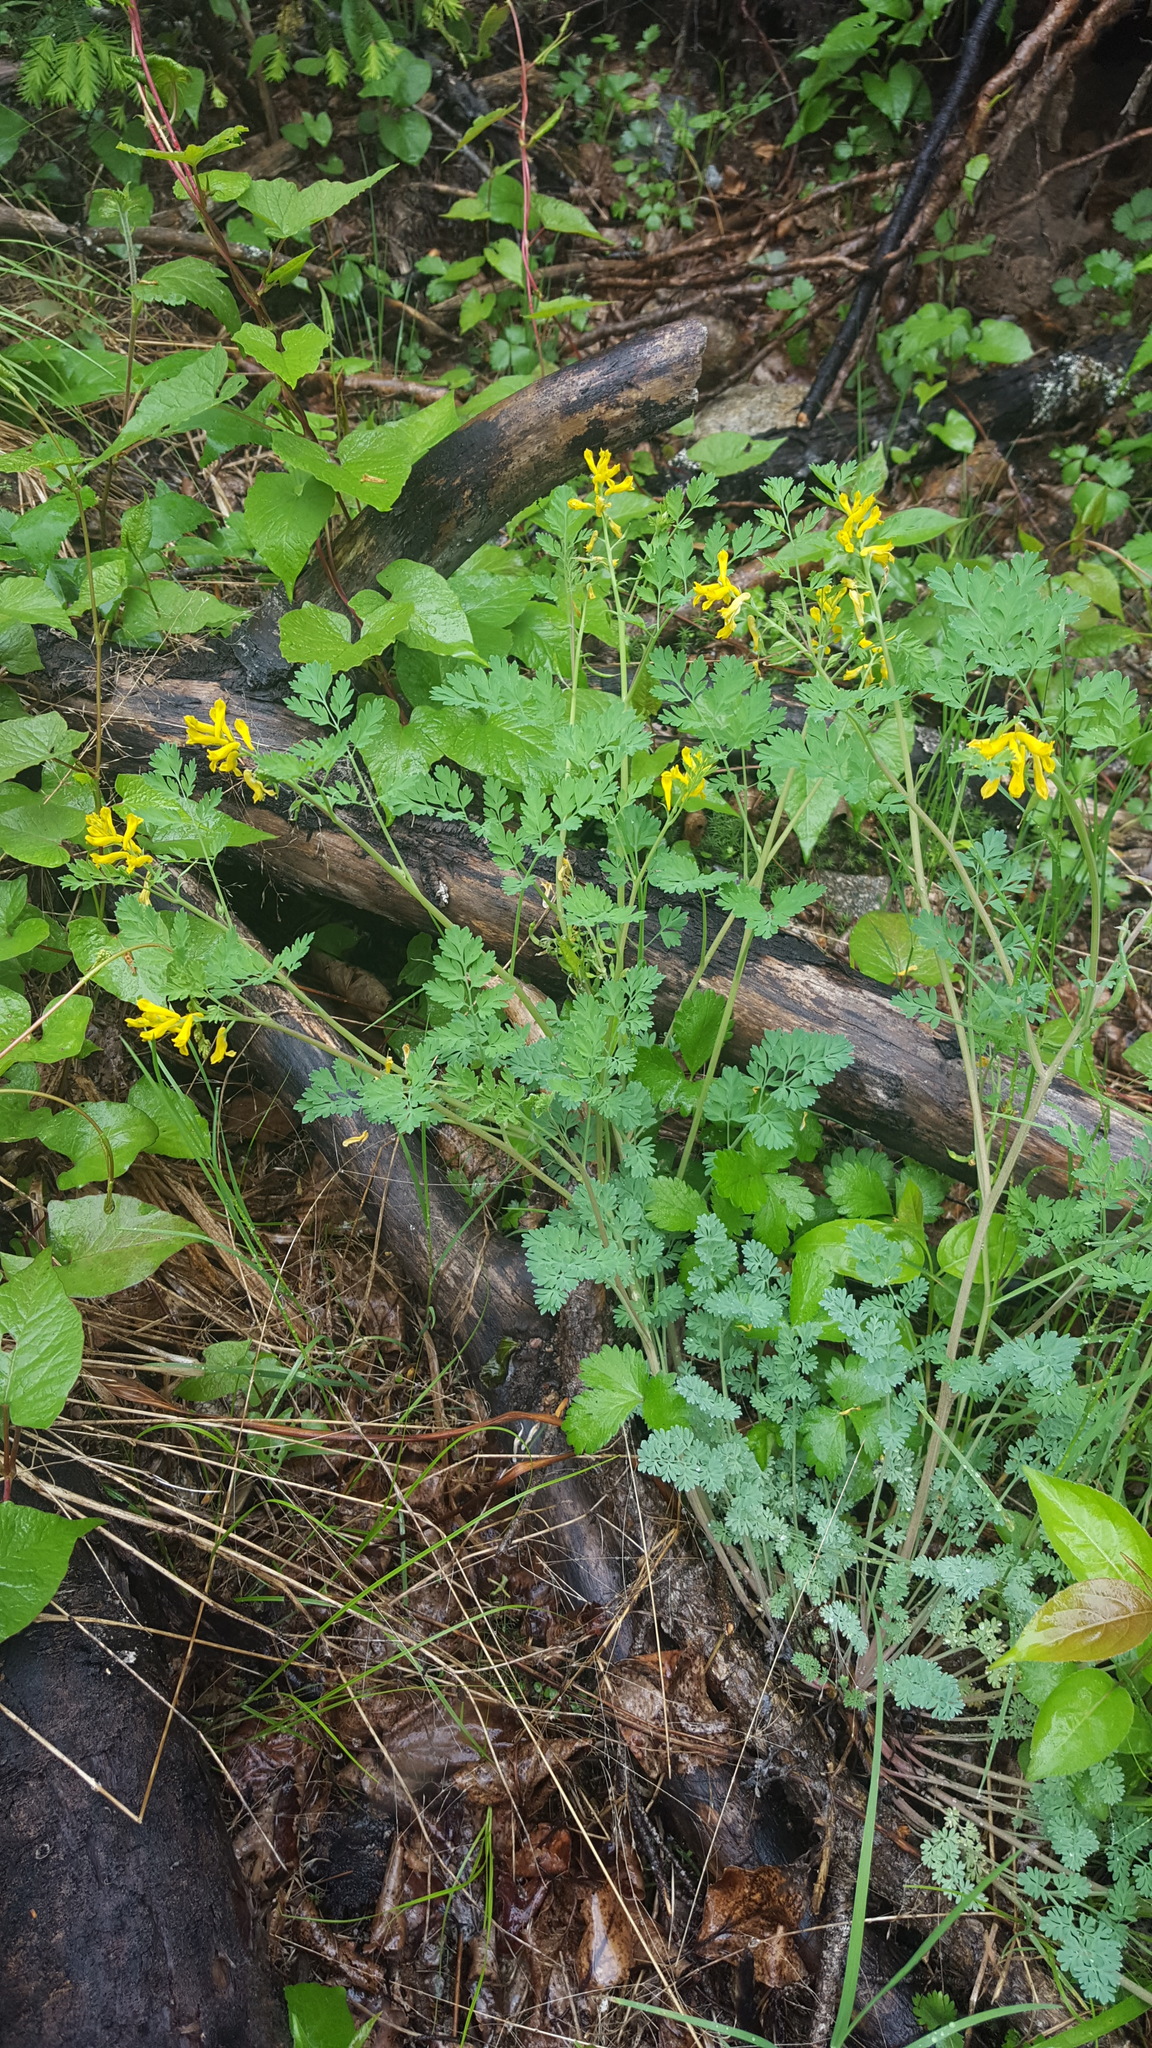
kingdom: Plantae
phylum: Tracheophyta
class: Magnoliopsida
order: Ranunculales
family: Papaveraceae
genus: Corydalis
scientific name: Corydalis aurea
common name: Golden corydalis
